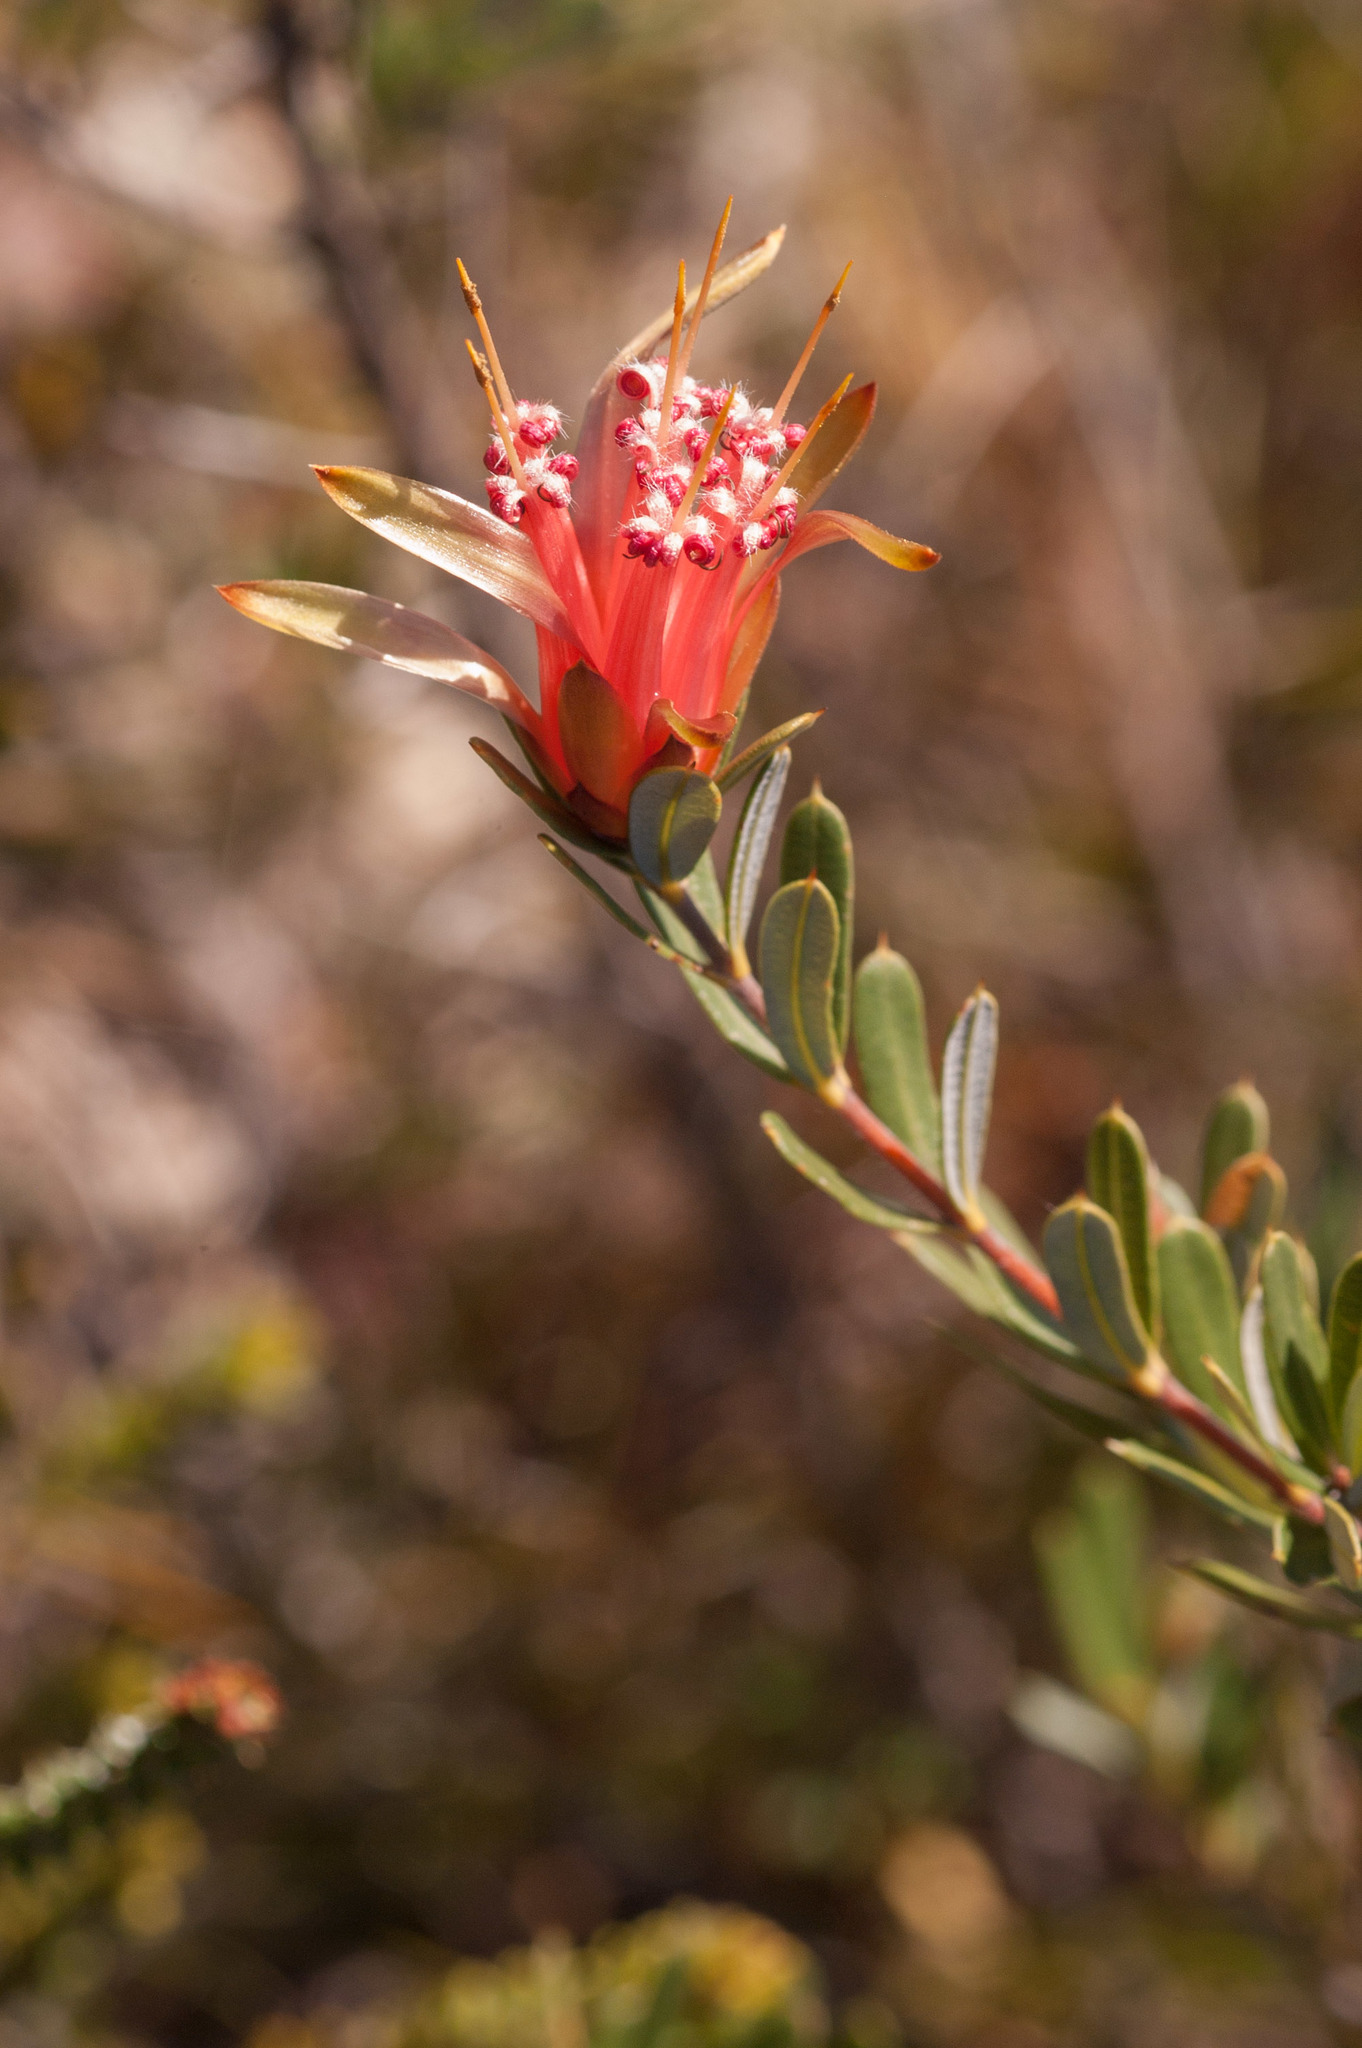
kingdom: Plantae
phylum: Tracheophyta
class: Magnoliopsida
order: Proteales
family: Proteaceae
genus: Lambertia
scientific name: Lambertia formosa
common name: Mountain-devil
